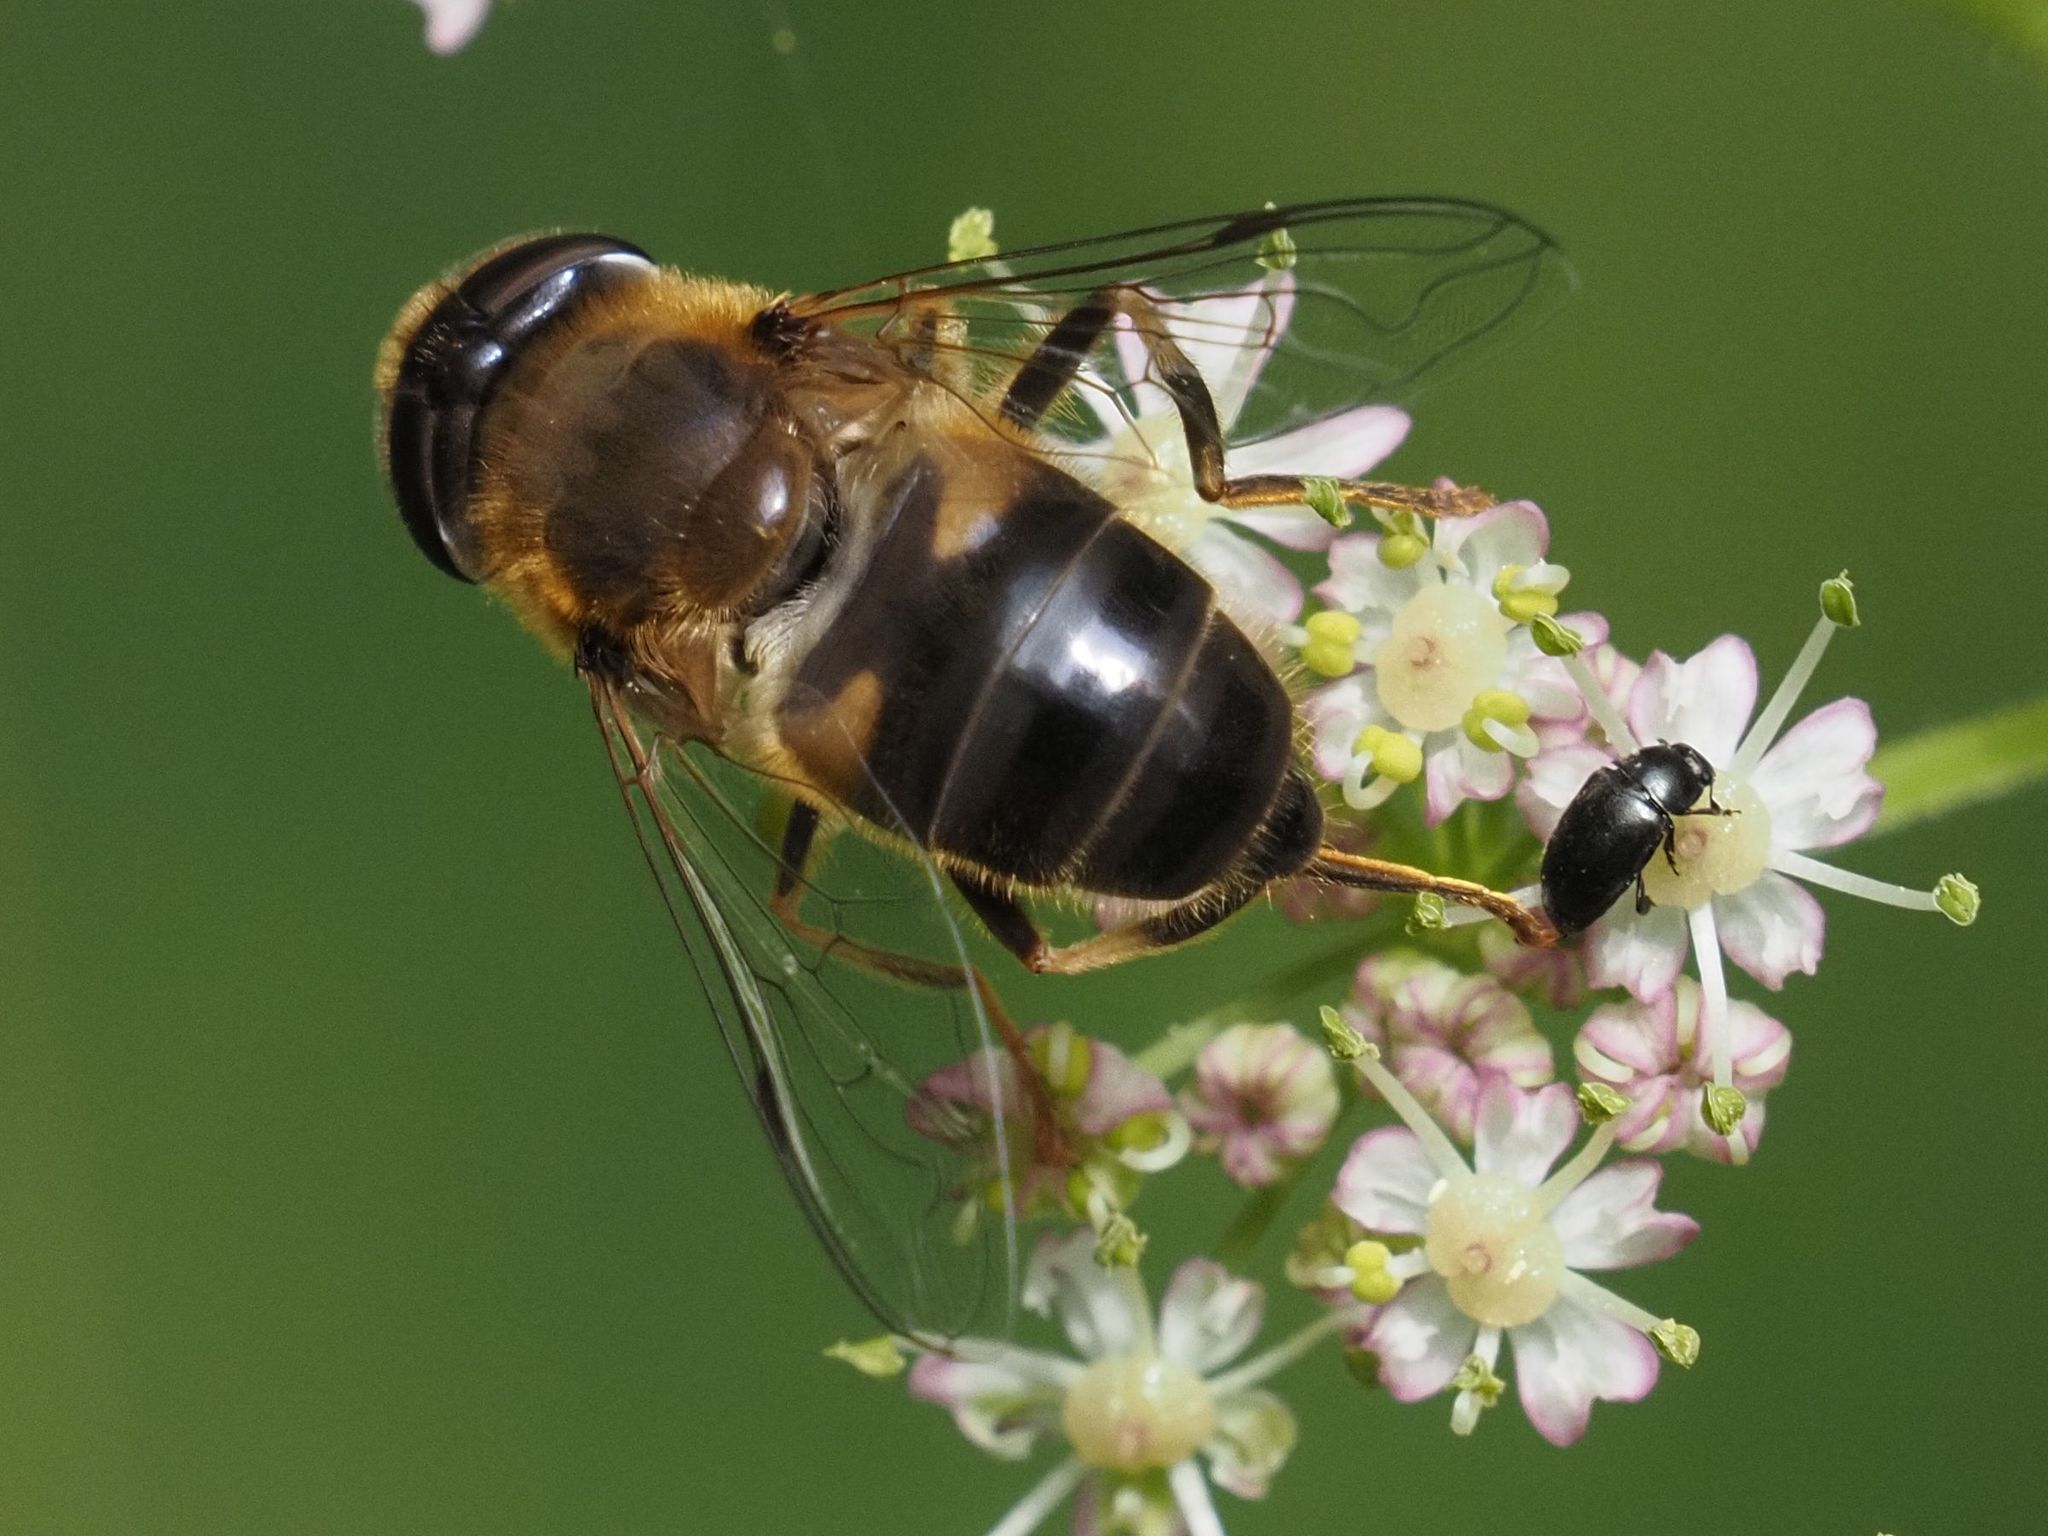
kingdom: Animalia
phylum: Arthropoda
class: Insecta
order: Diptera
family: Syrphidae
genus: Eristalis
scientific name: Eristalis pertinax
